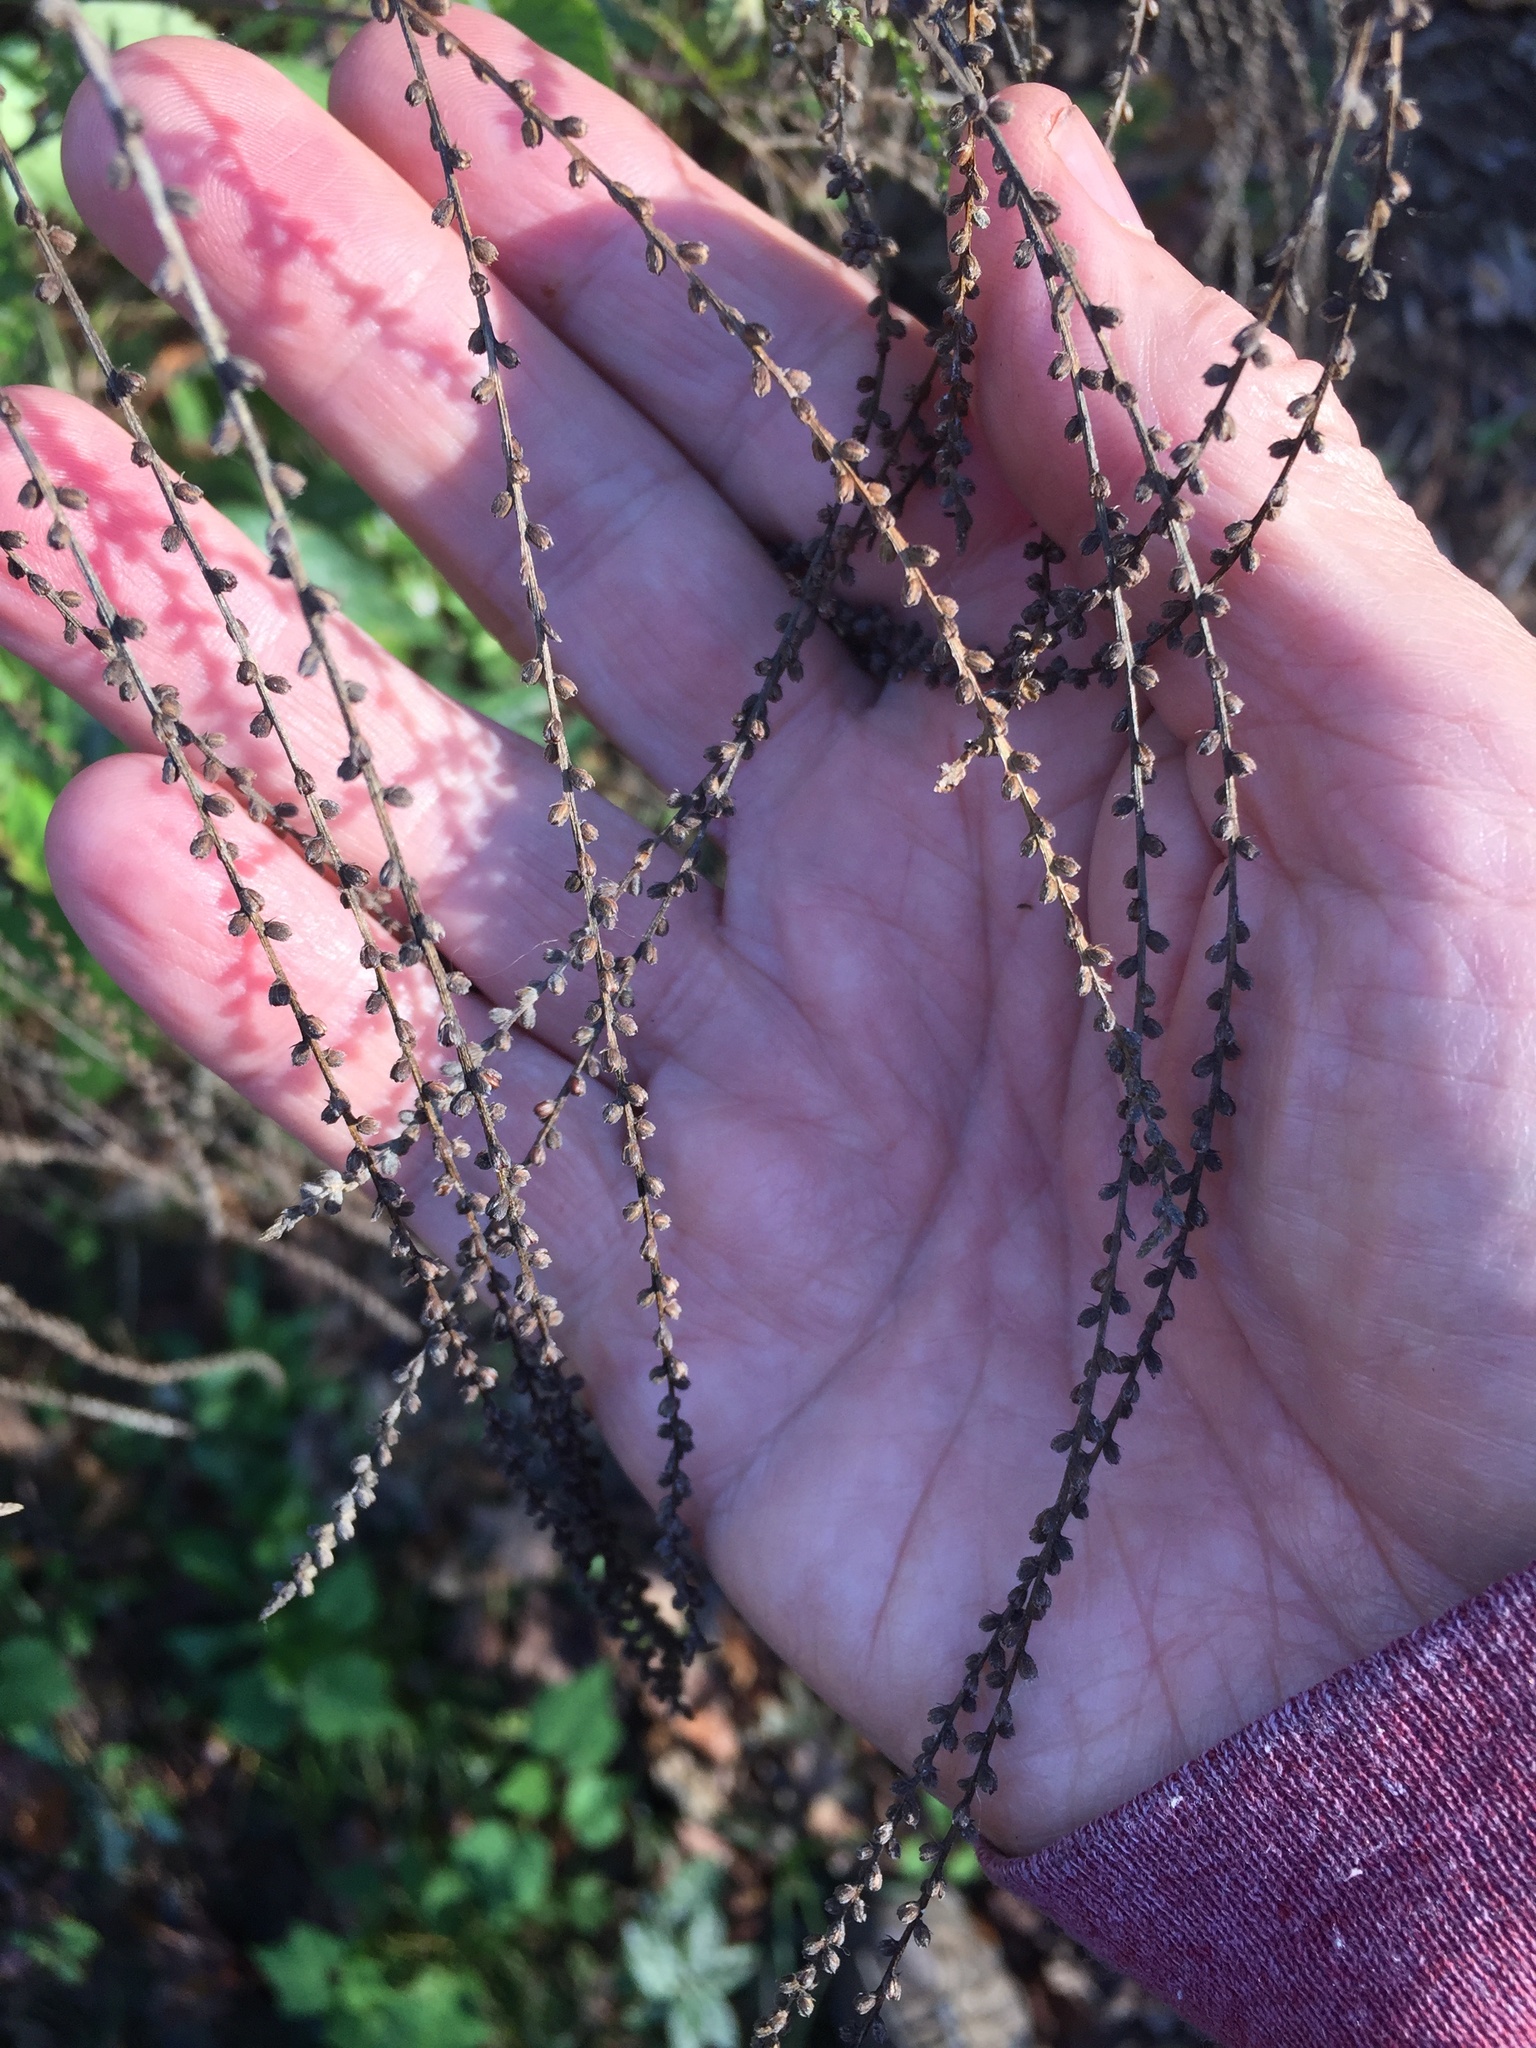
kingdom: Plantae
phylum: Tracheophyta
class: Magnoliopsida
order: Lamiales
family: Verbenaceae
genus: Verbena
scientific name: Verbena urticifolia
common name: Nettle-leaved vervain
